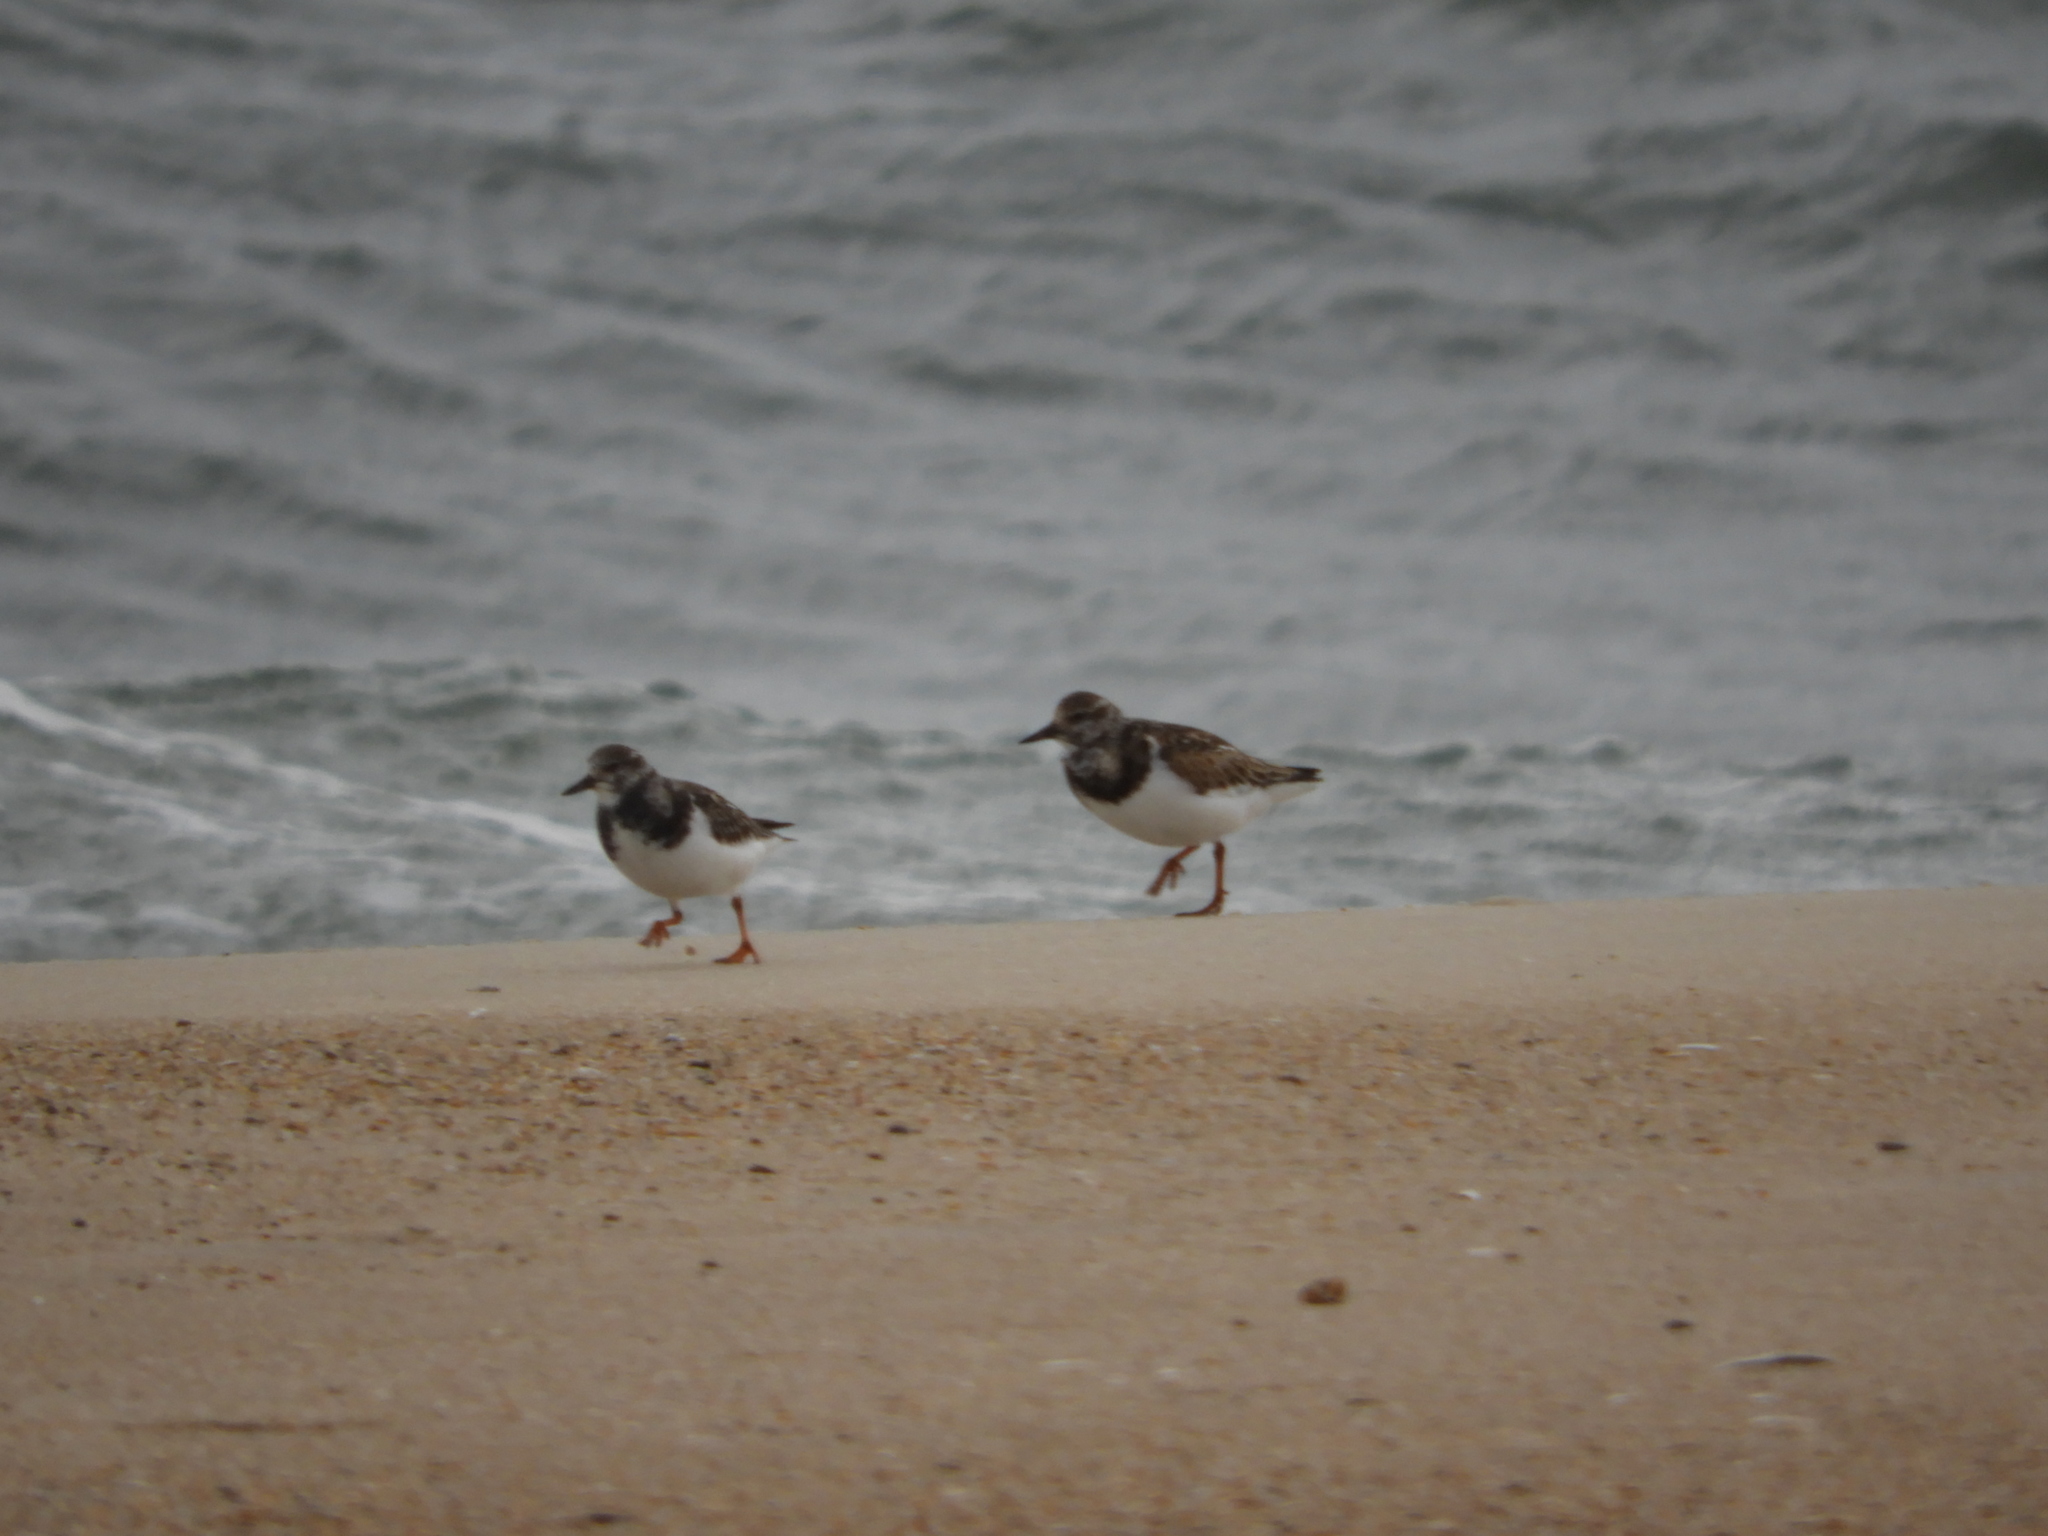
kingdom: Animalia
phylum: Chordata
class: Aves
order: Charadriiformes
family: Scolopacidae
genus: Arenaria
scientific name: Arenaria interpres
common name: Ruddy turnstone
